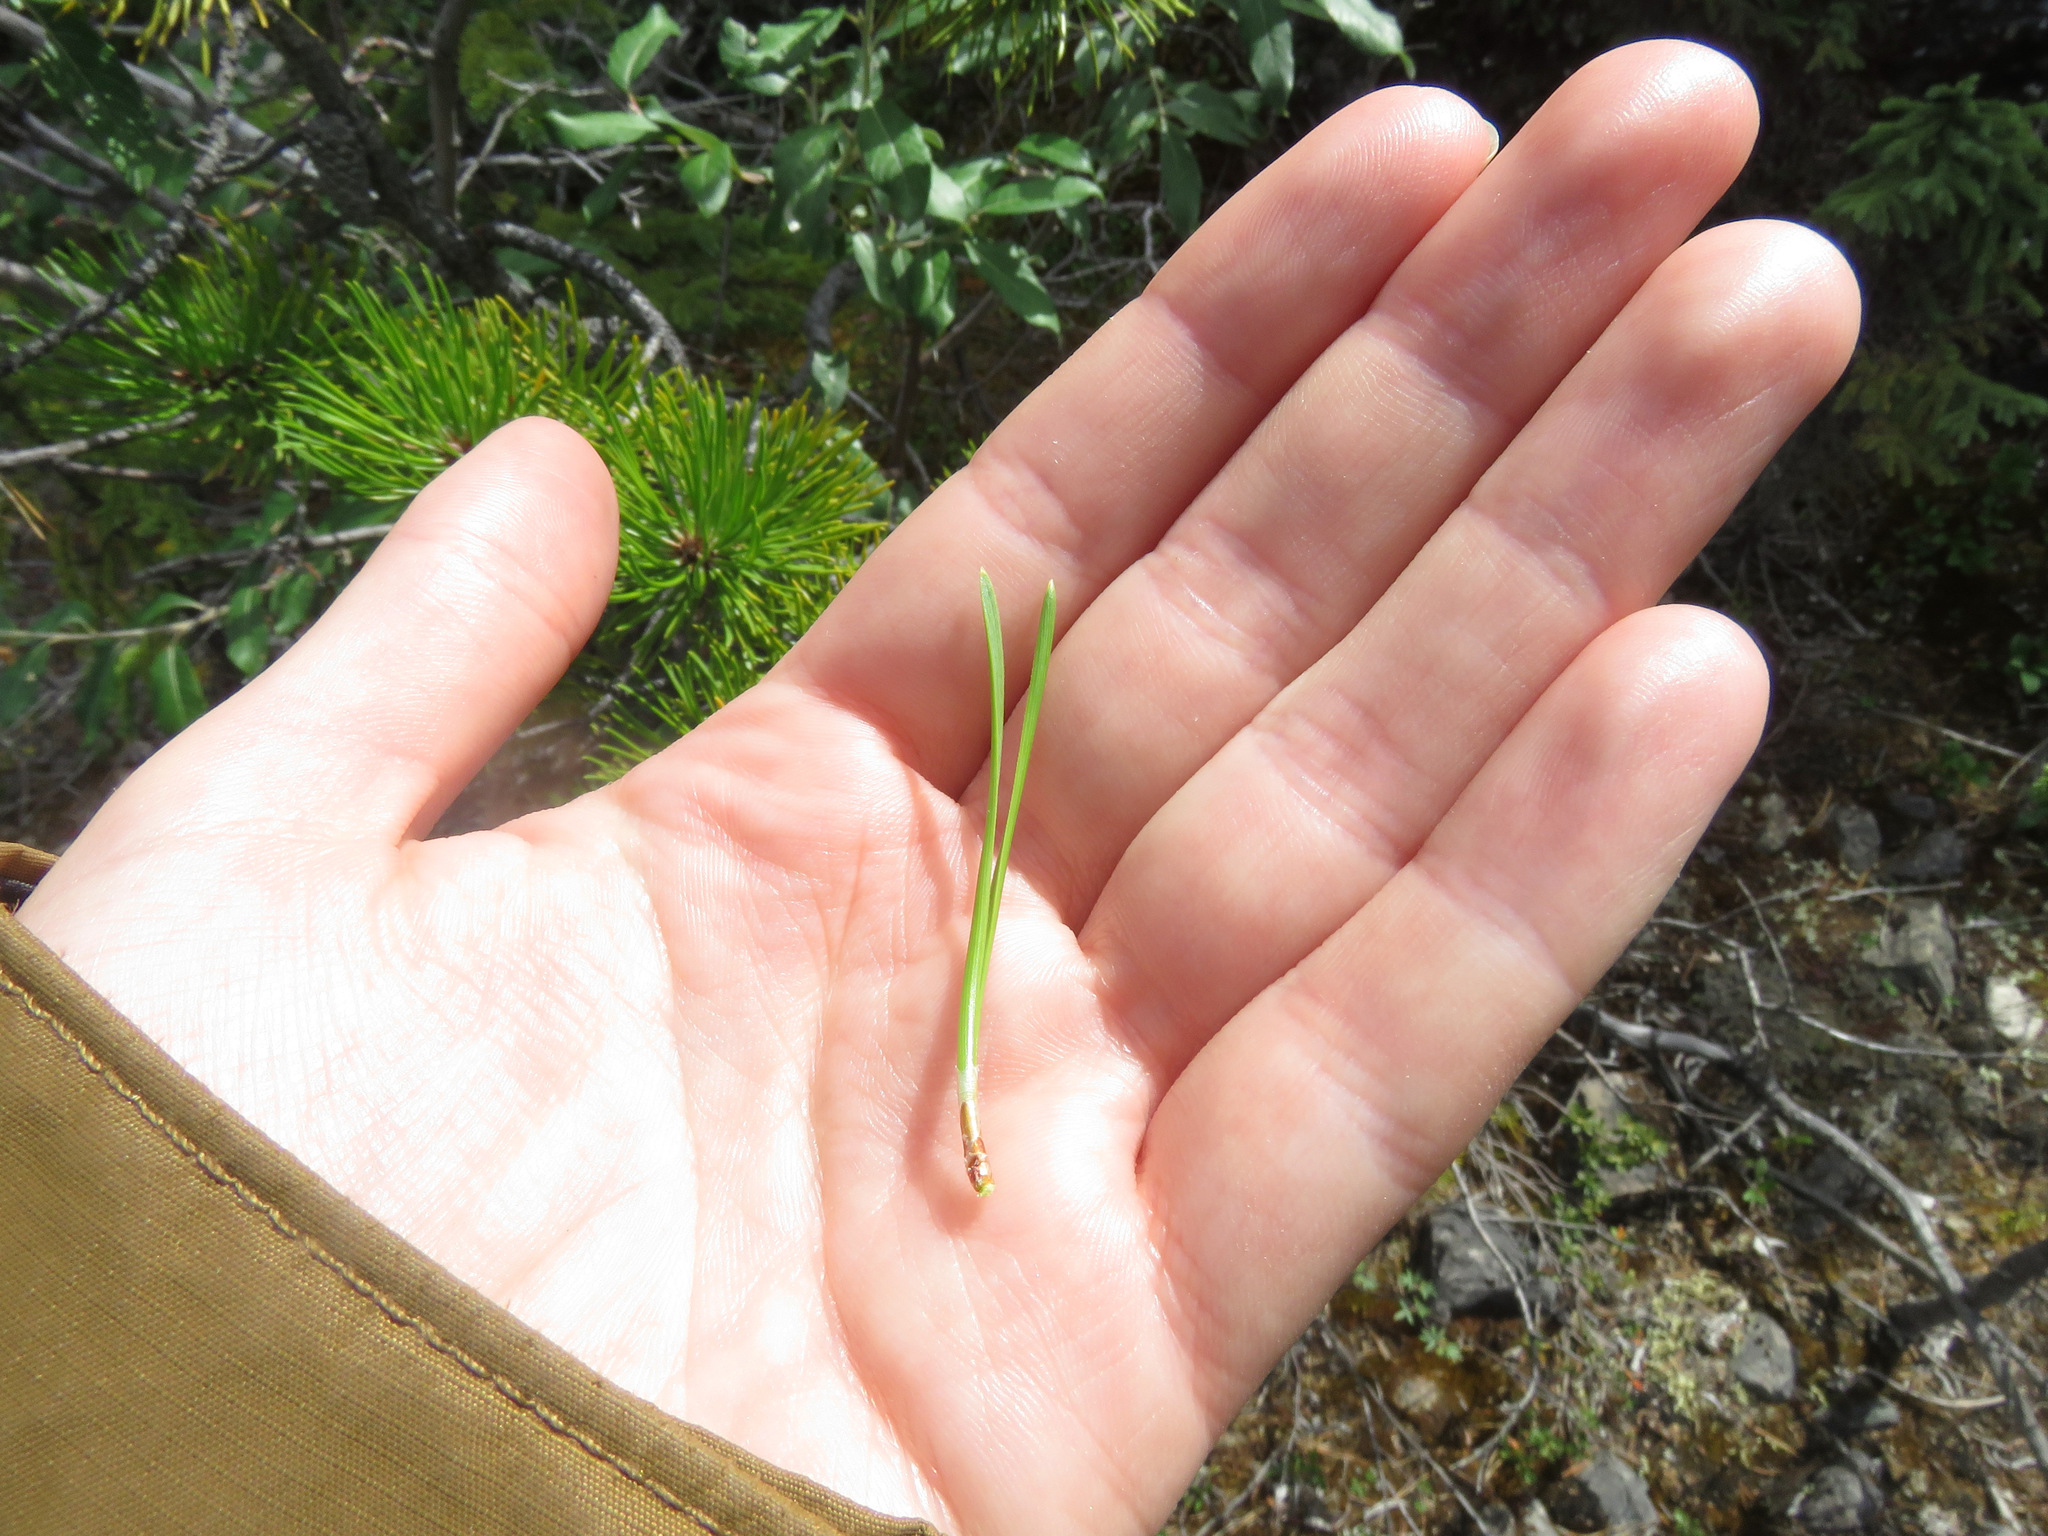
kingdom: Plantae
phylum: Tracheophyta
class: Pinopsida
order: Pinales
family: Pinaceae
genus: Pinus
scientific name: Pinus contorta
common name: Lodgepole pine
